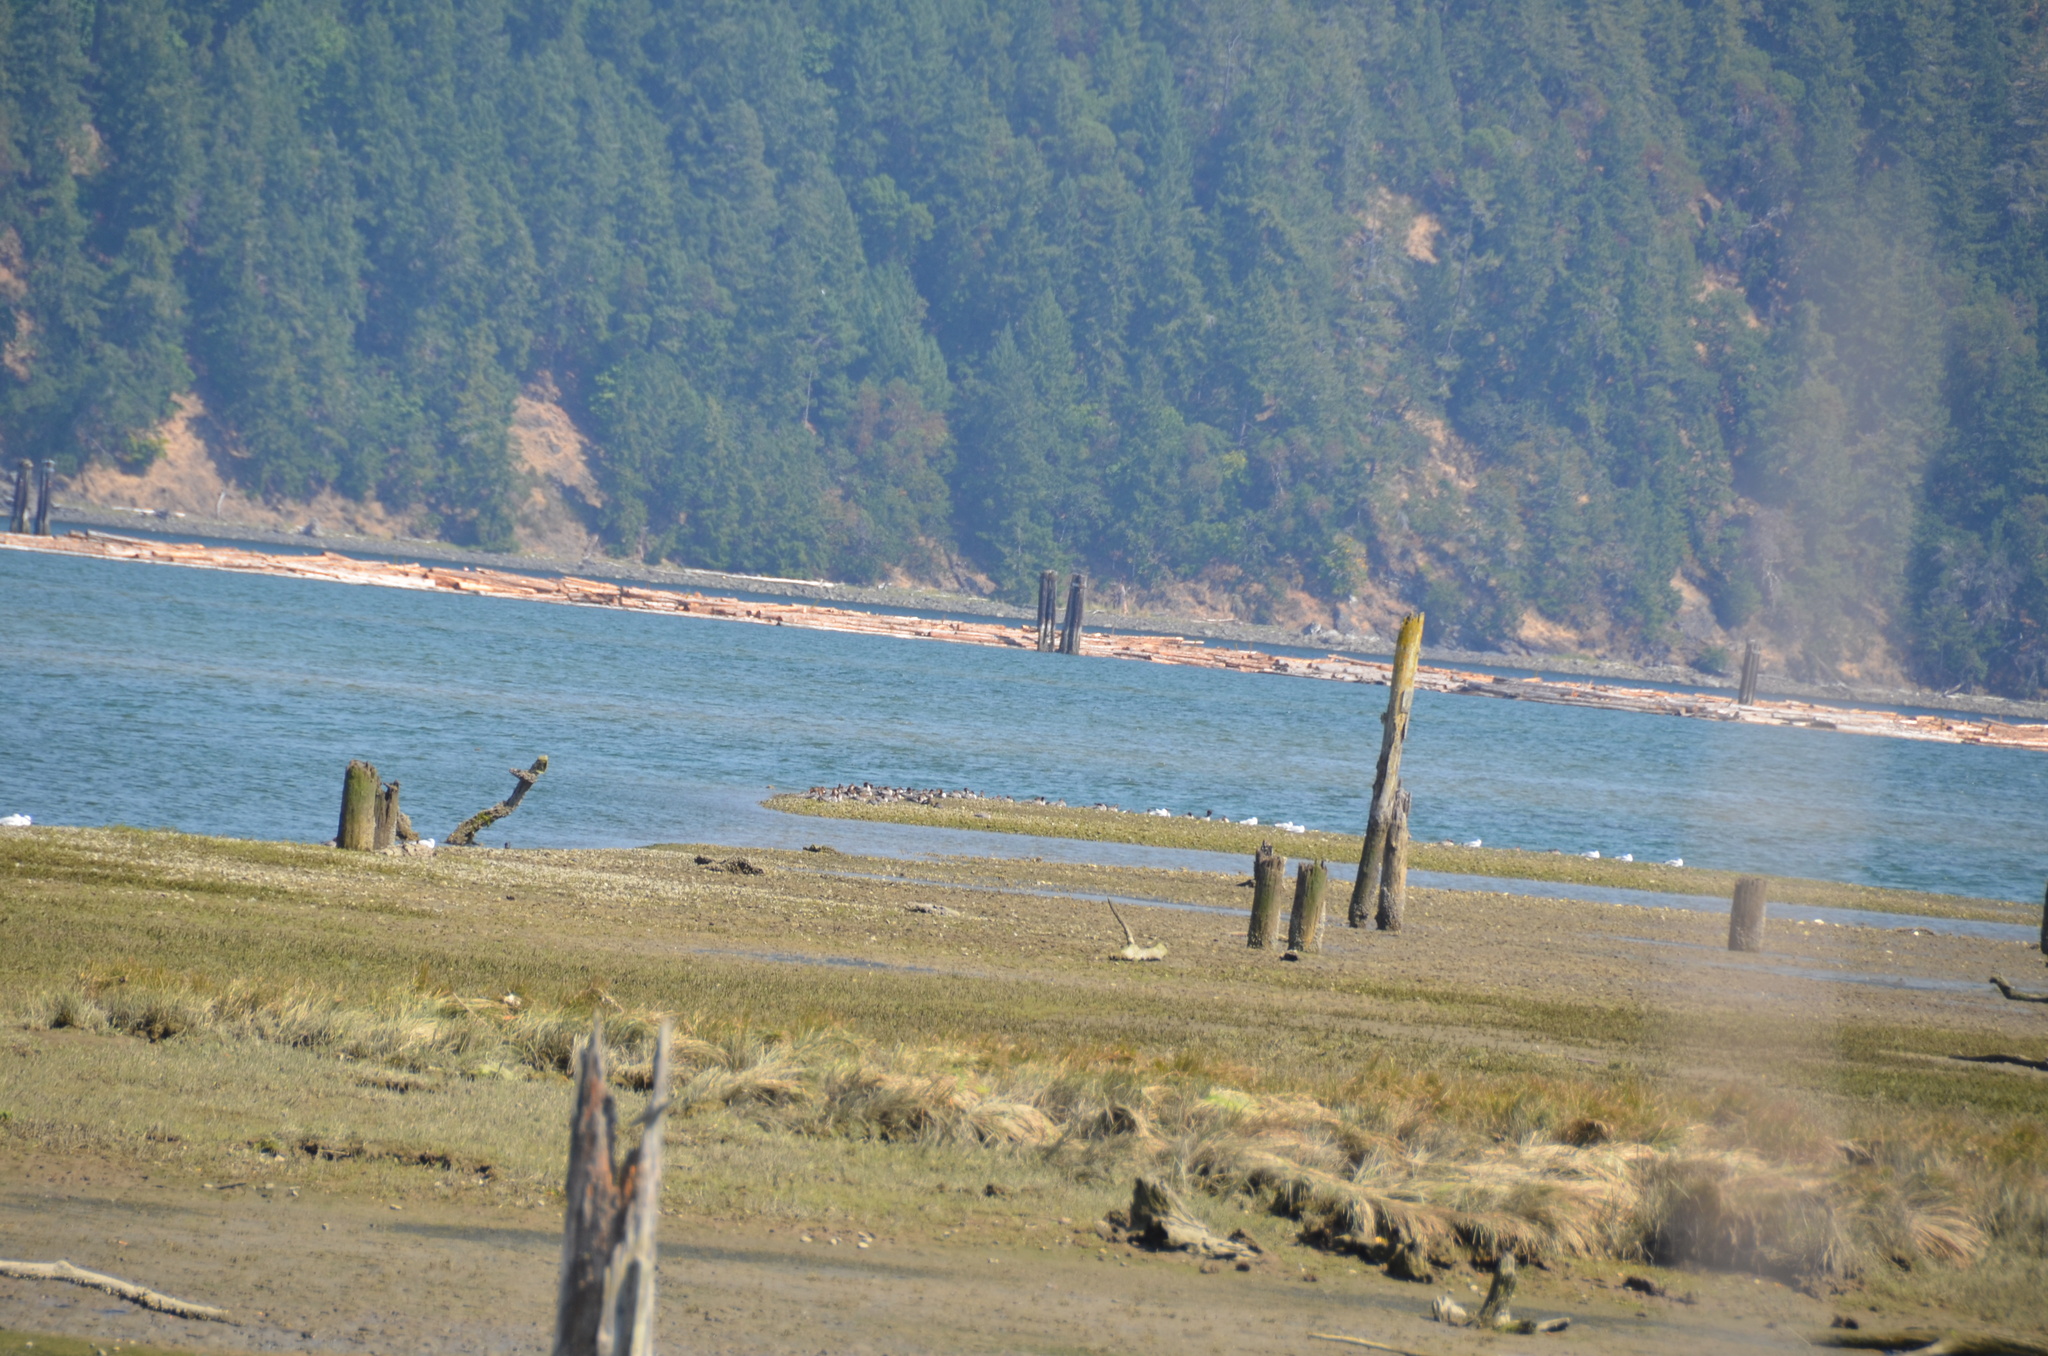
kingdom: Animalia
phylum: Chordata
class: Aves
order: Anseriformes
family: Anatidae
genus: Mergus
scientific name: Mergus merganser
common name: Common merganser
